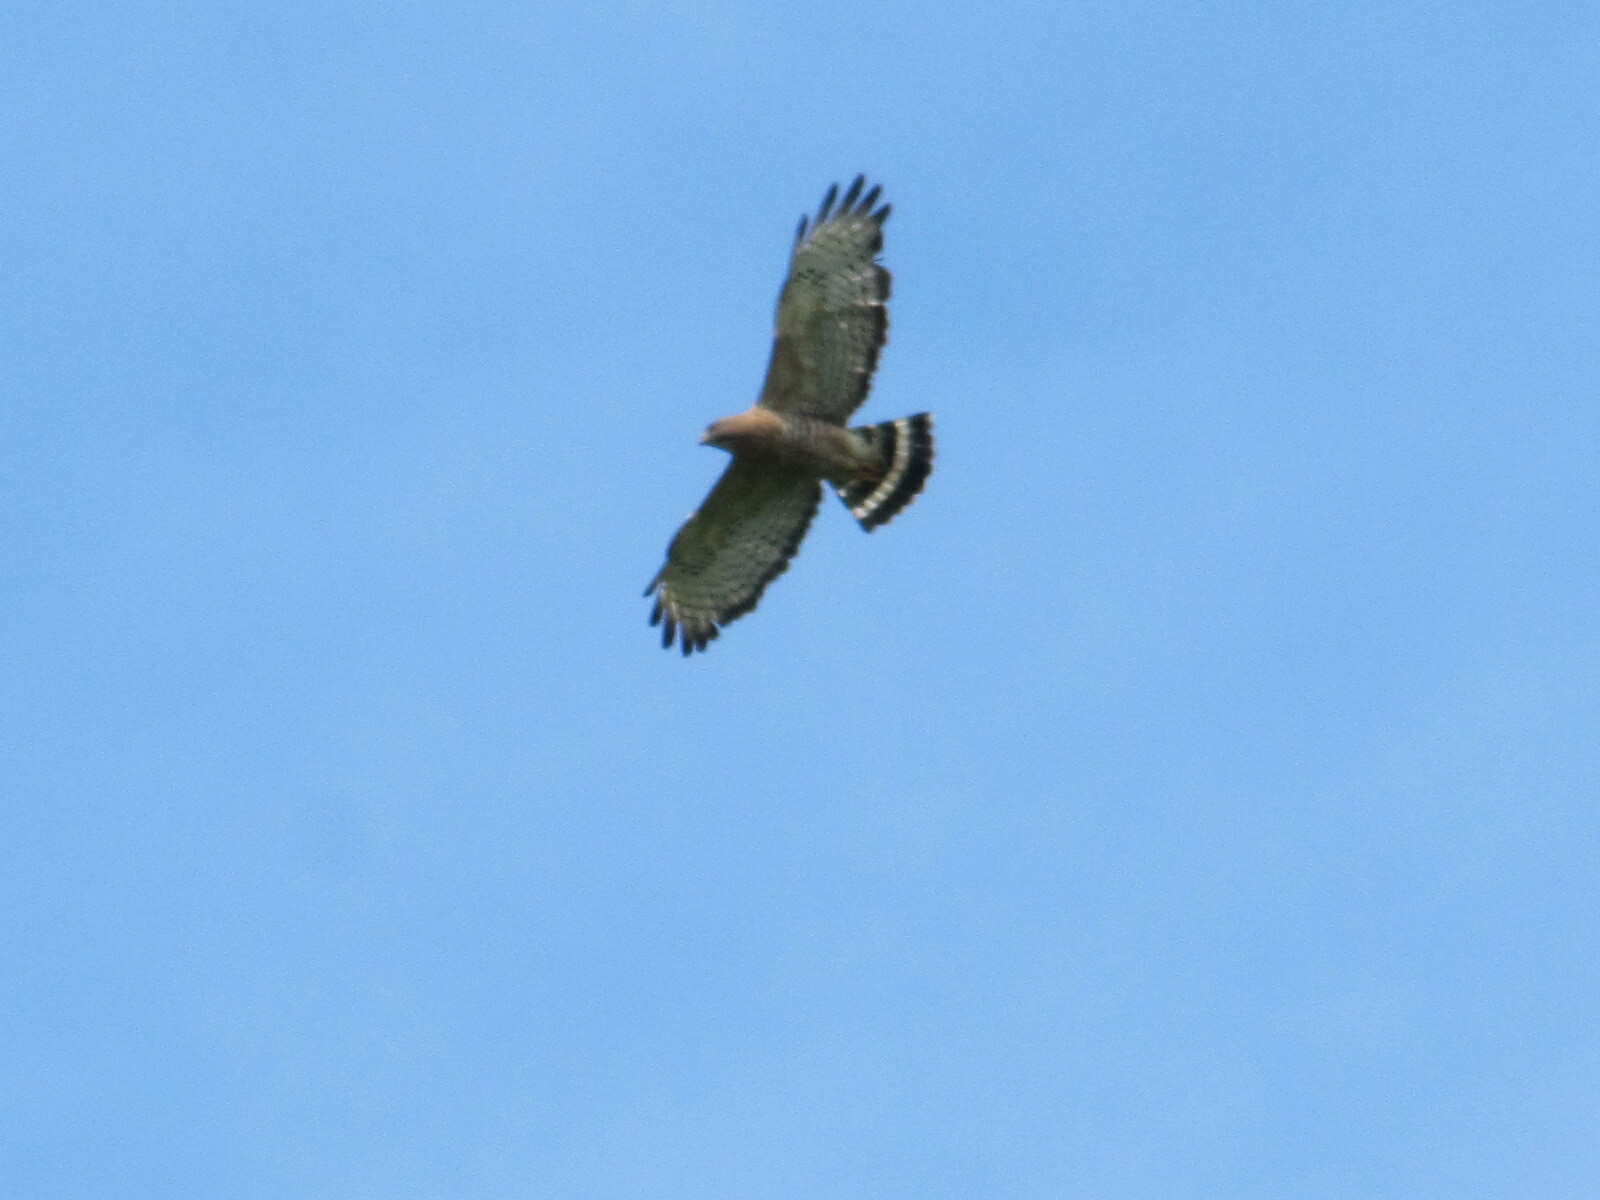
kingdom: Animalia
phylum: Chordata
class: Aves
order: Accipitriformes
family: Accipitridae
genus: Buteo
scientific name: Buteo platypterus
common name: Broad-winged hawk
